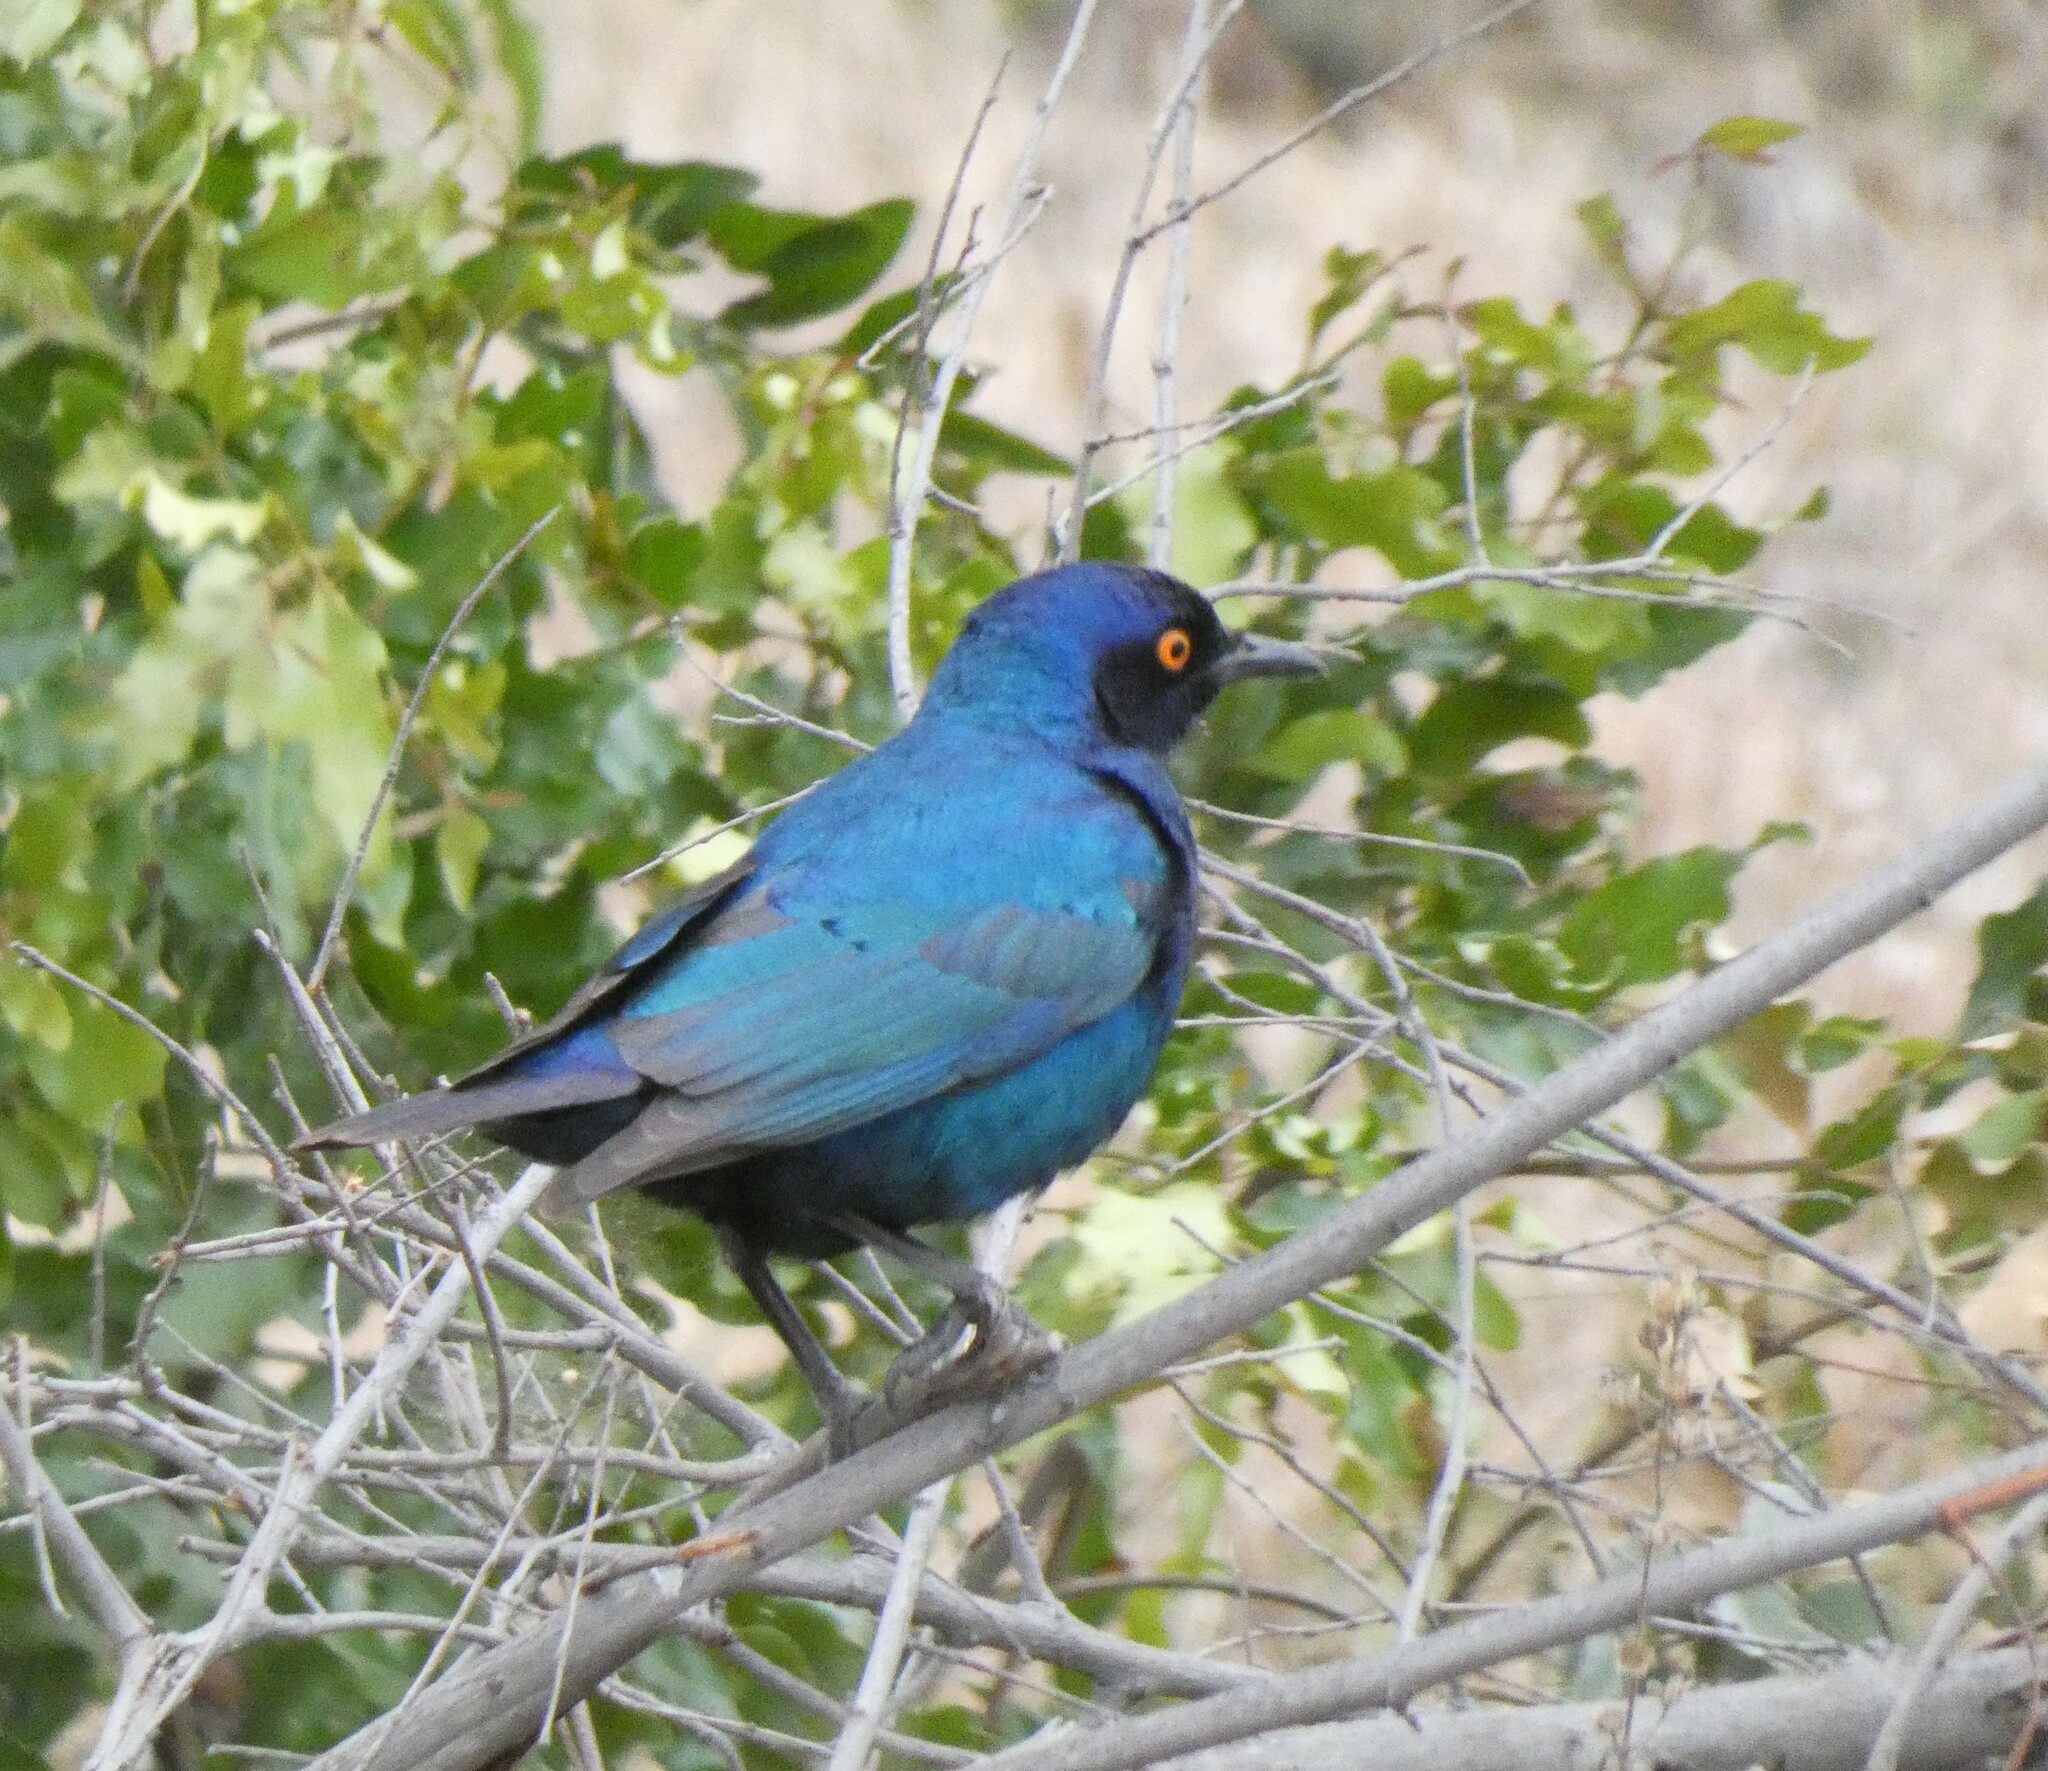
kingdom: Animalia
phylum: Chordata
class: Aves
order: Passeriformes
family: Sturnidae
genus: Lamprotornis
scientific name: Lamprotornis nitens
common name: Cape starling
